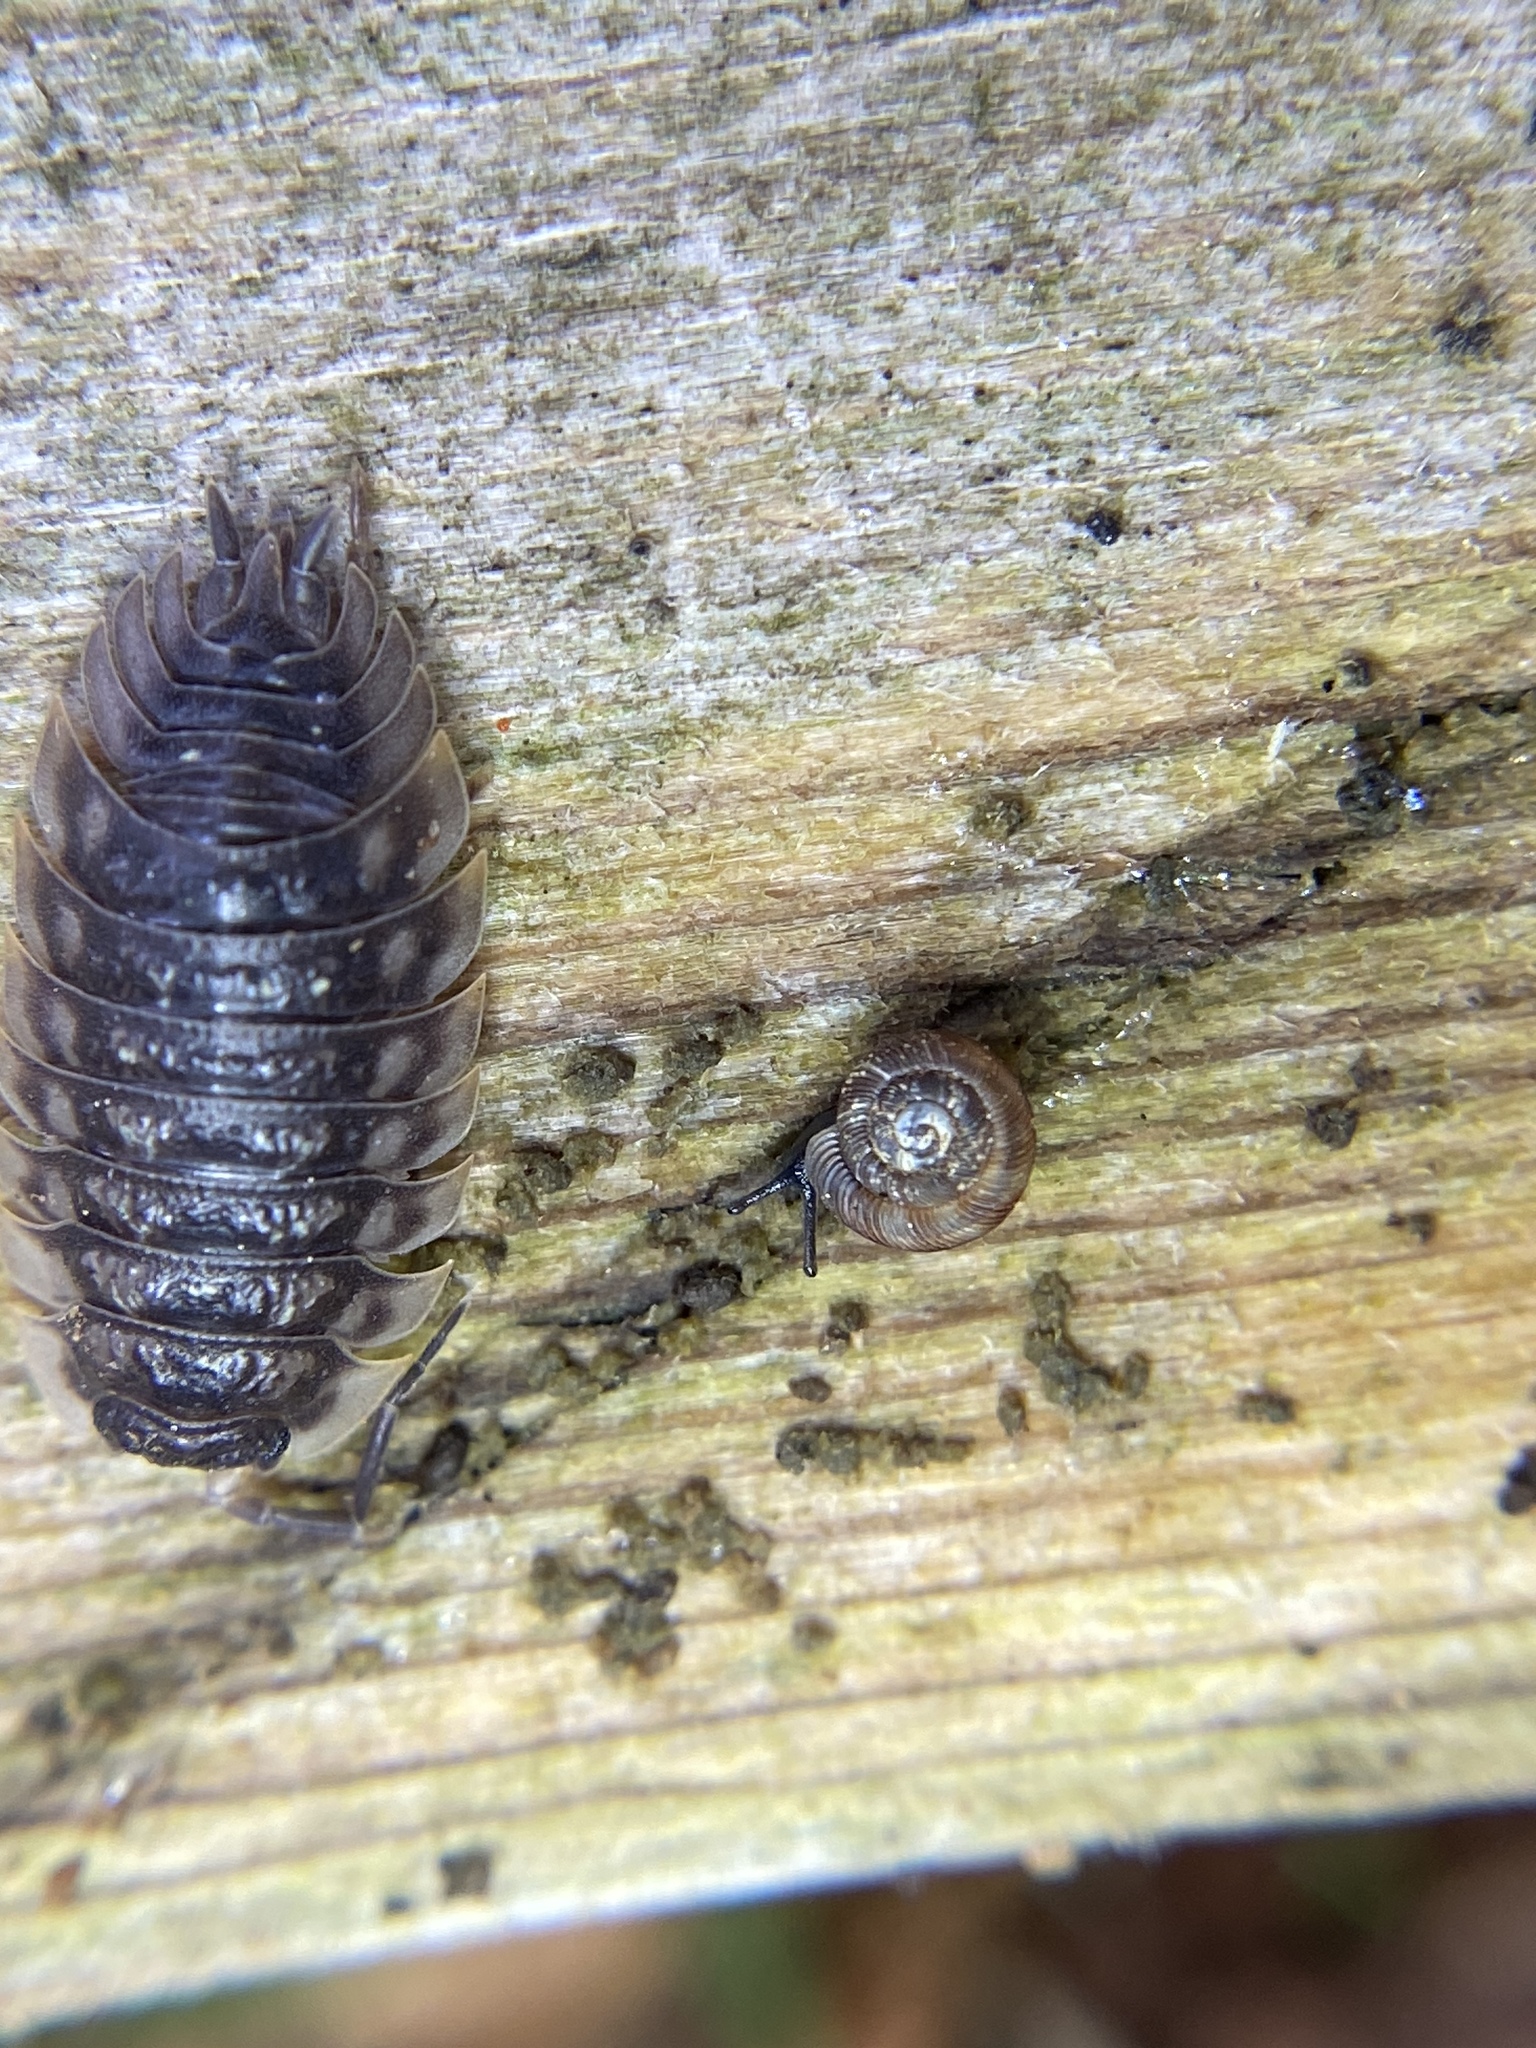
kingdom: Animalia
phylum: Mollusca
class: Gastropoda
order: Stylommatophora
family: Discidae
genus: Discus
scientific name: Discus rotundatus
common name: Rounded snail
